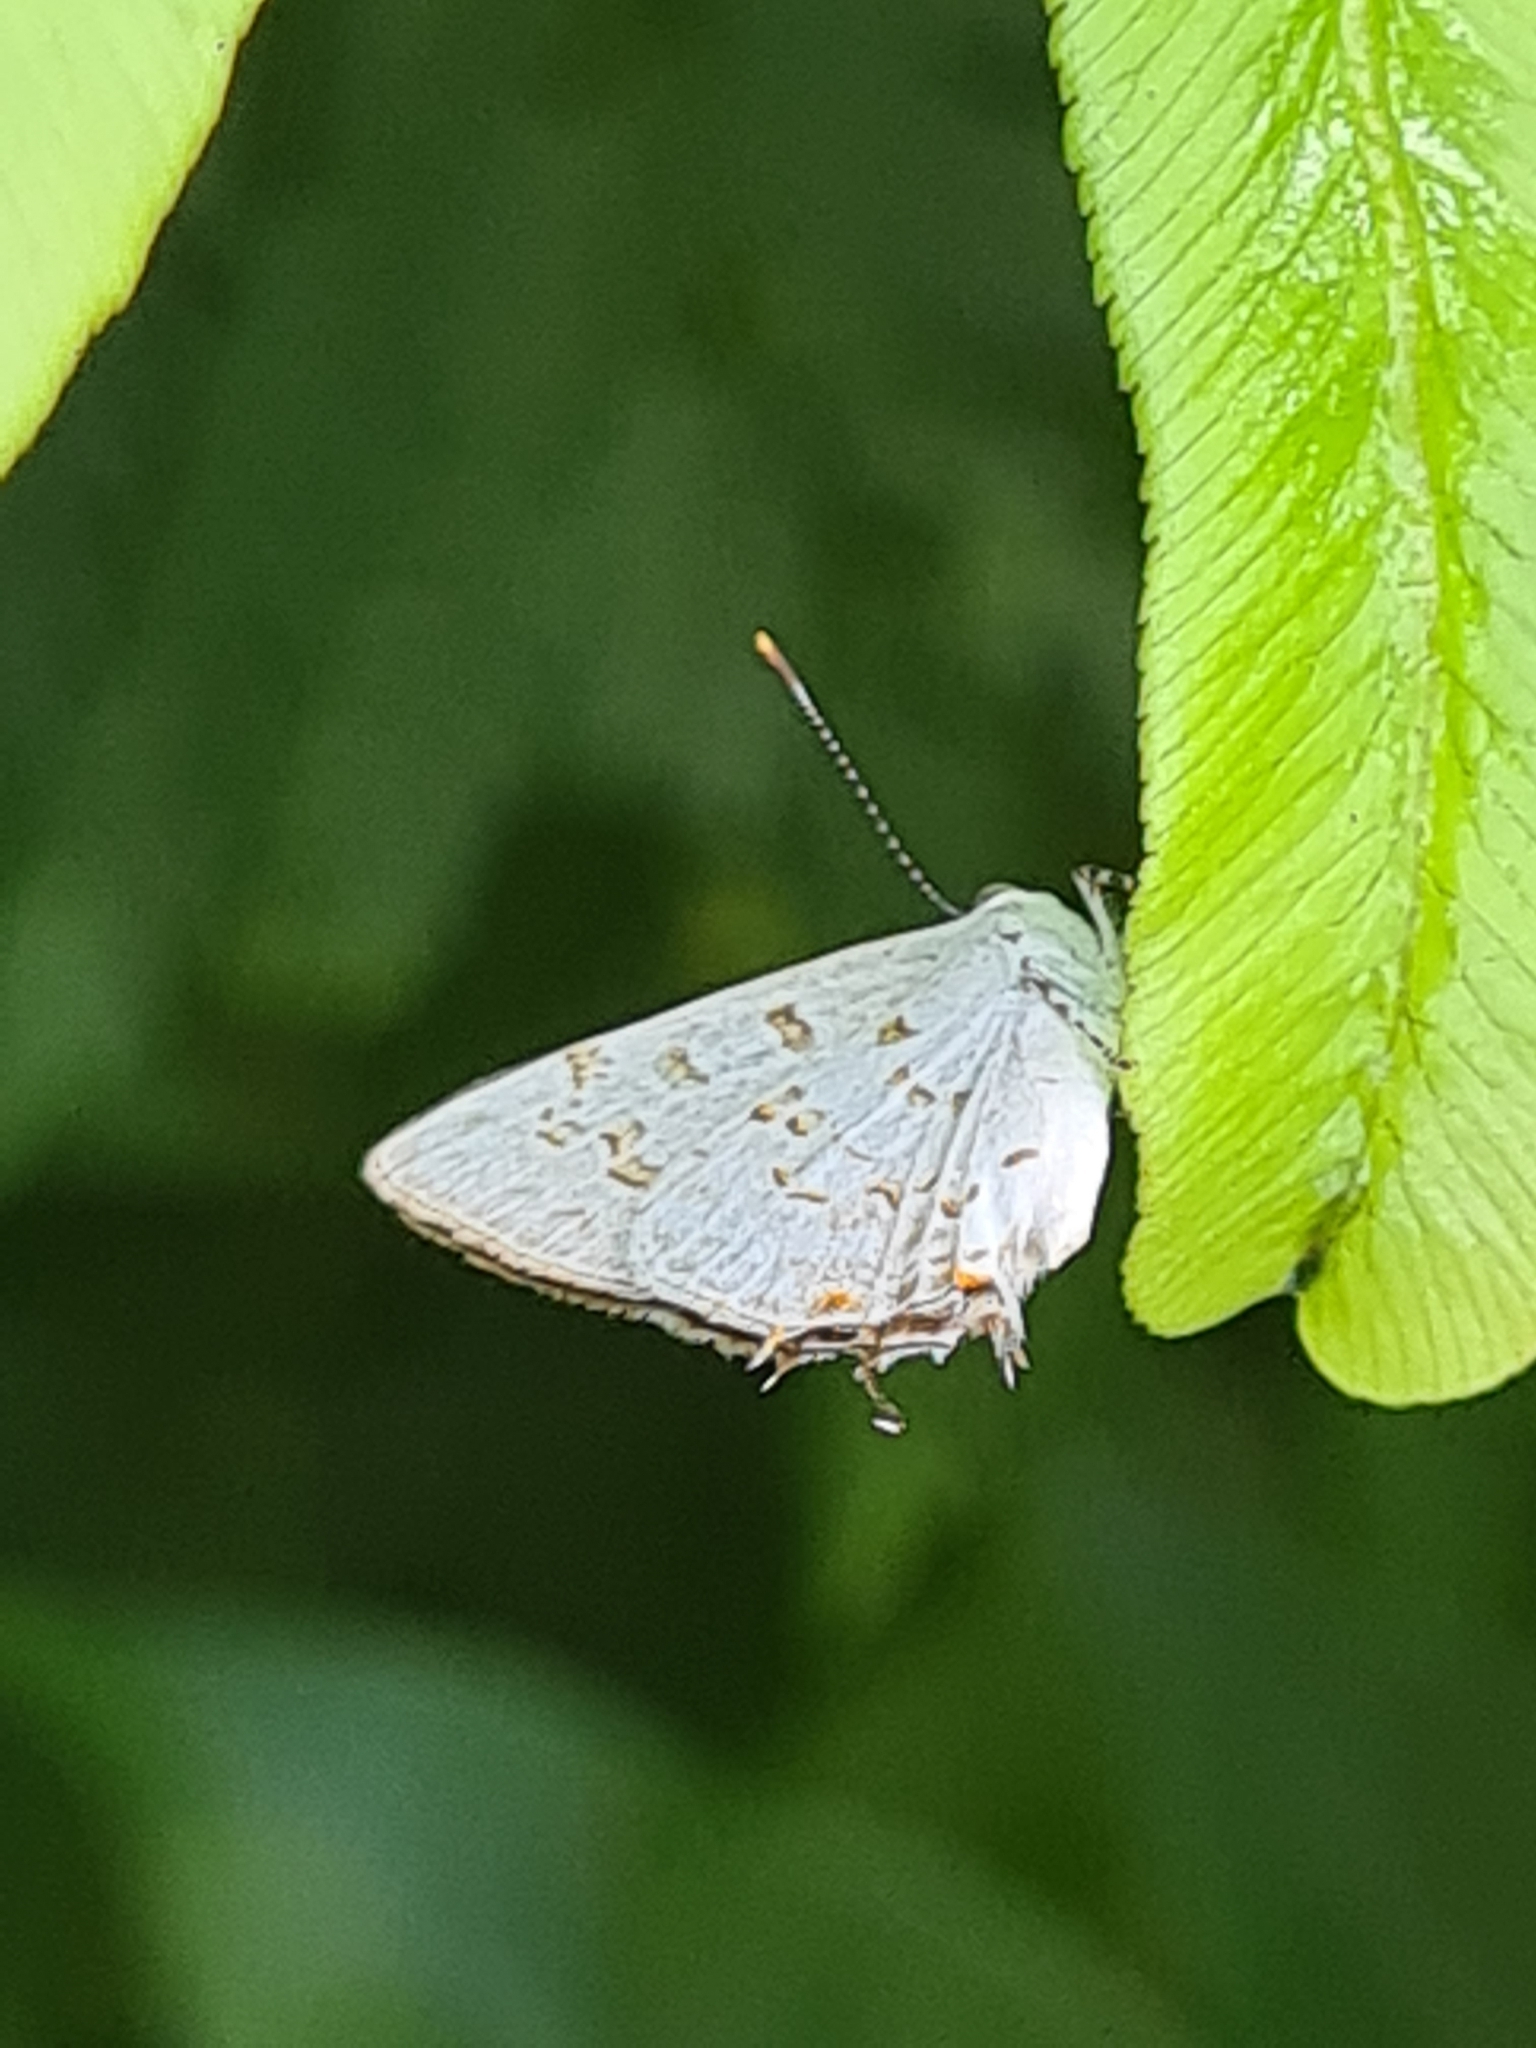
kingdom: Animalia
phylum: Arthropoda
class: Insecta
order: Lepidoptera
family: Lycaenidae
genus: Thecla
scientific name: Thecla una
